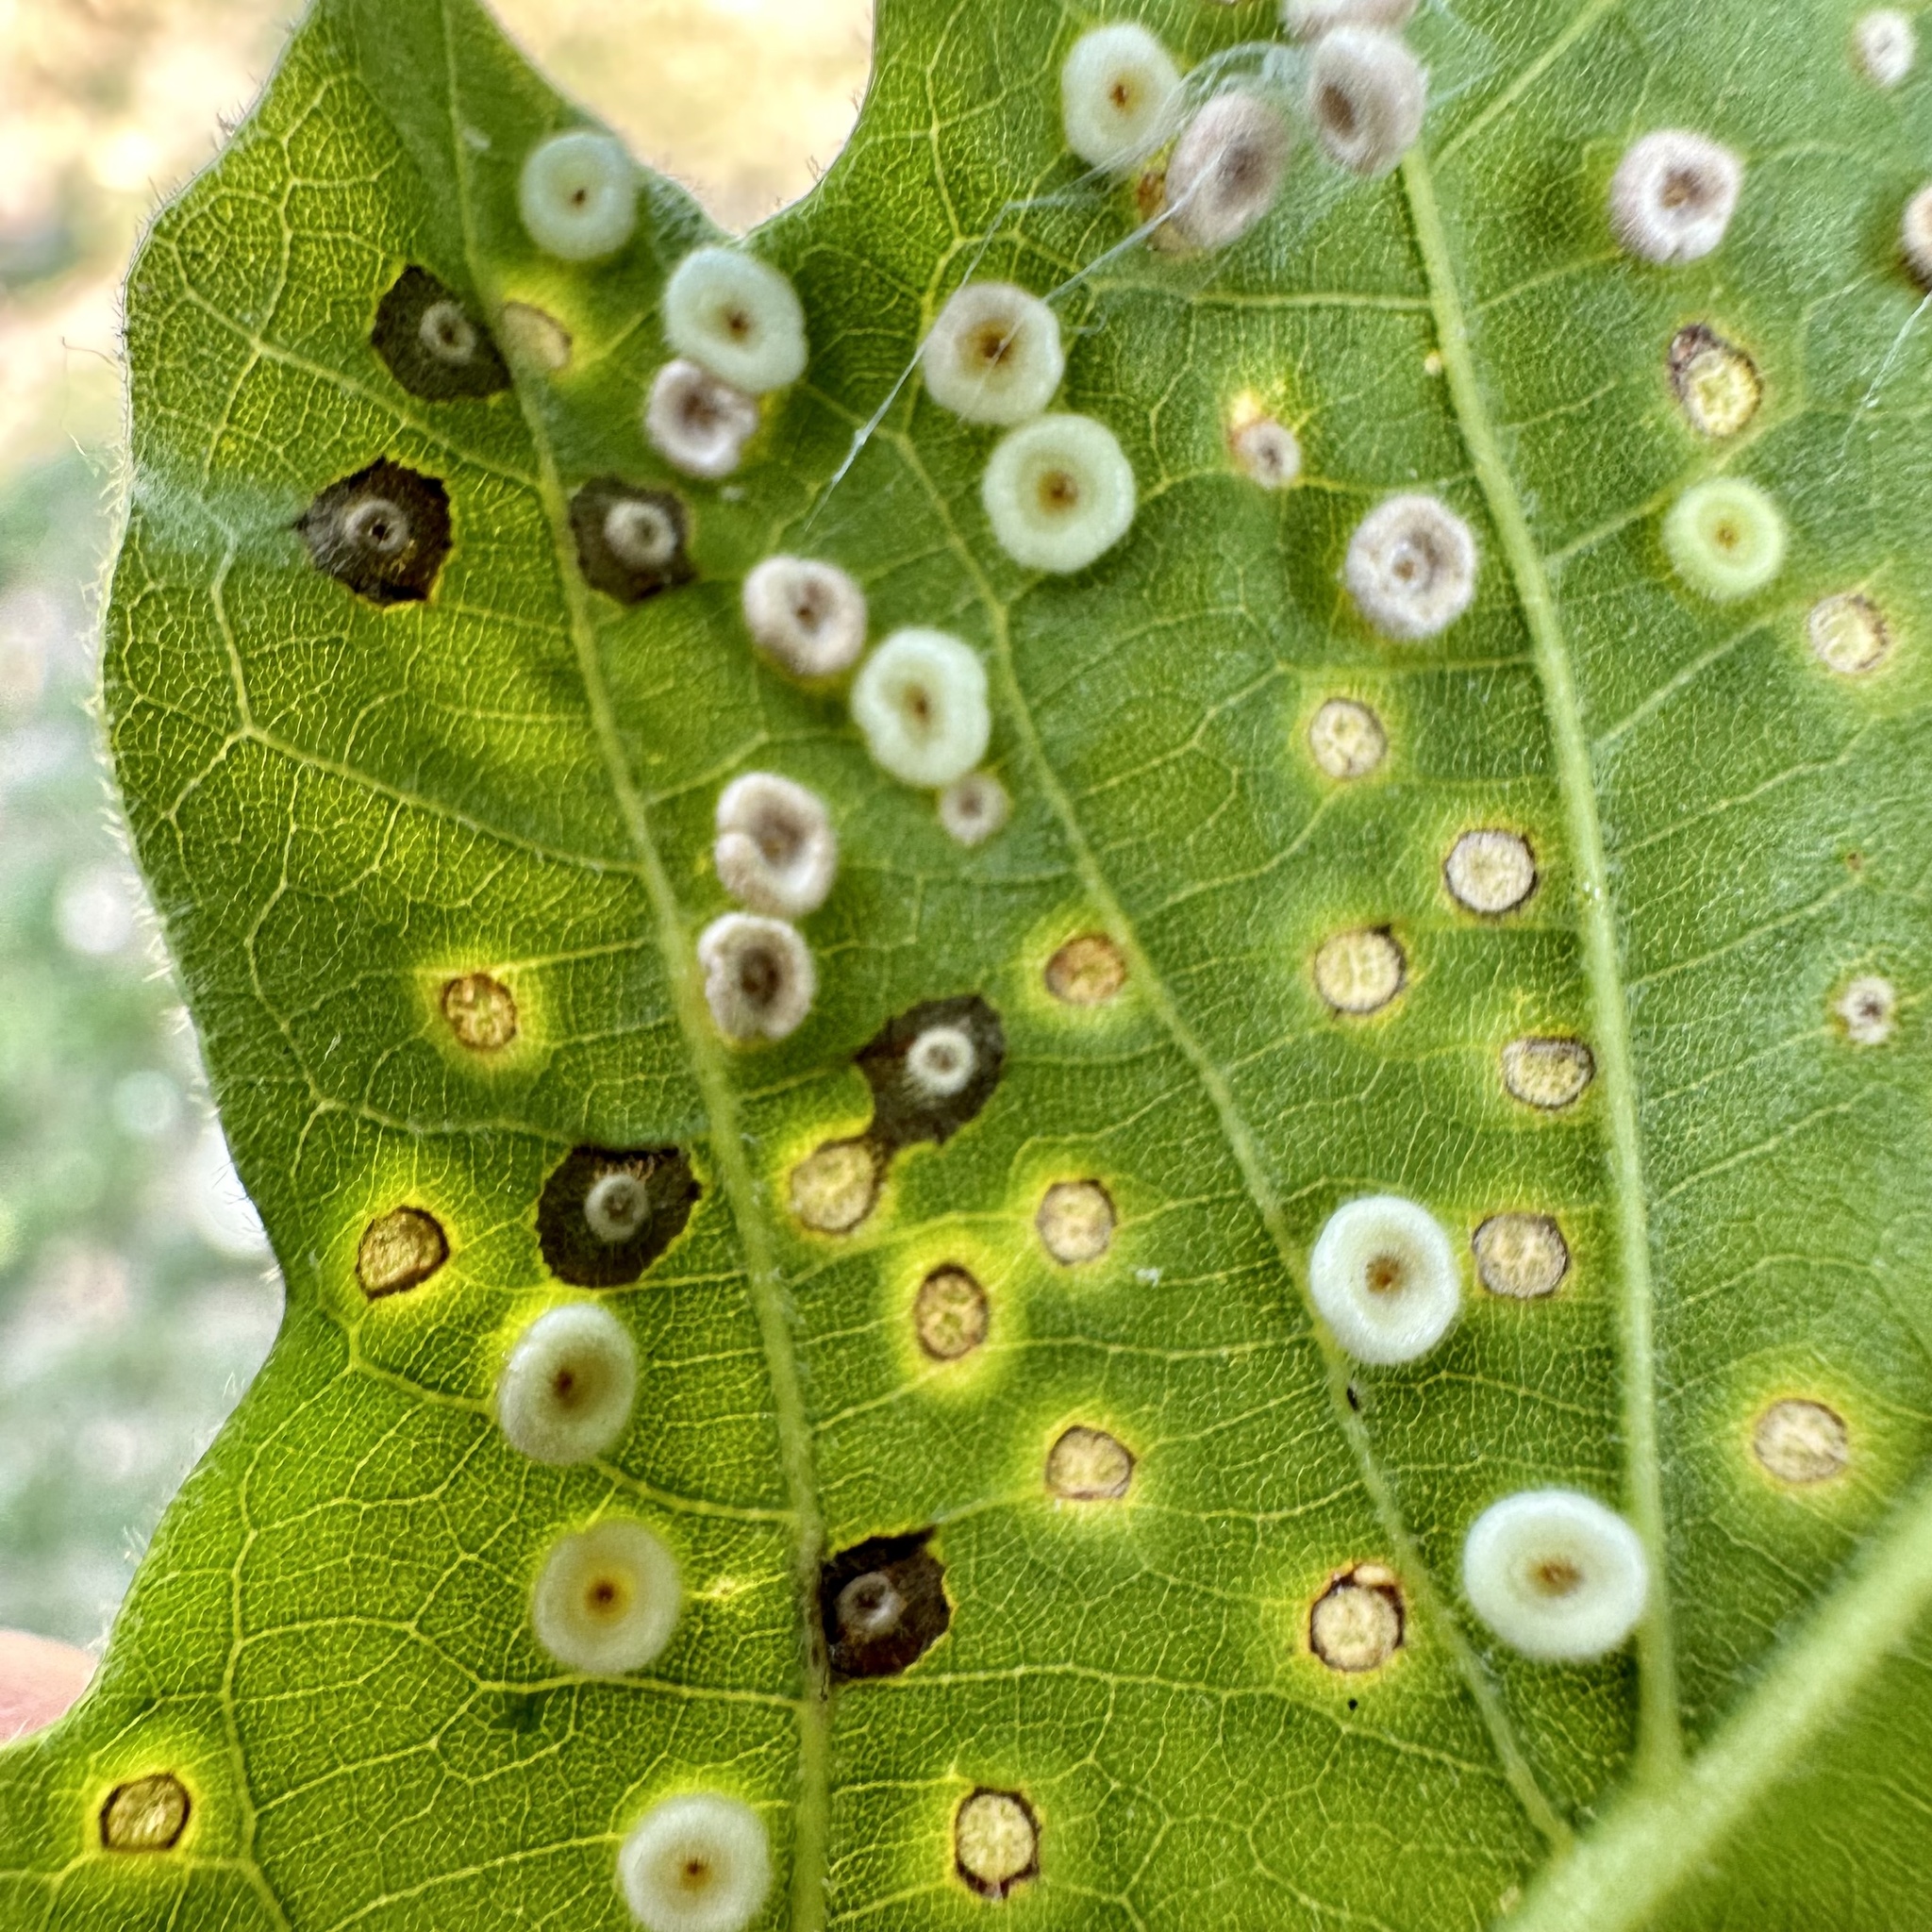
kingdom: Animalia
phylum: Arthropoda
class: Insecta
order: Hymenoptera
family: Cynipidae
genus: Neuroterus
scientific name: Neuroterus
